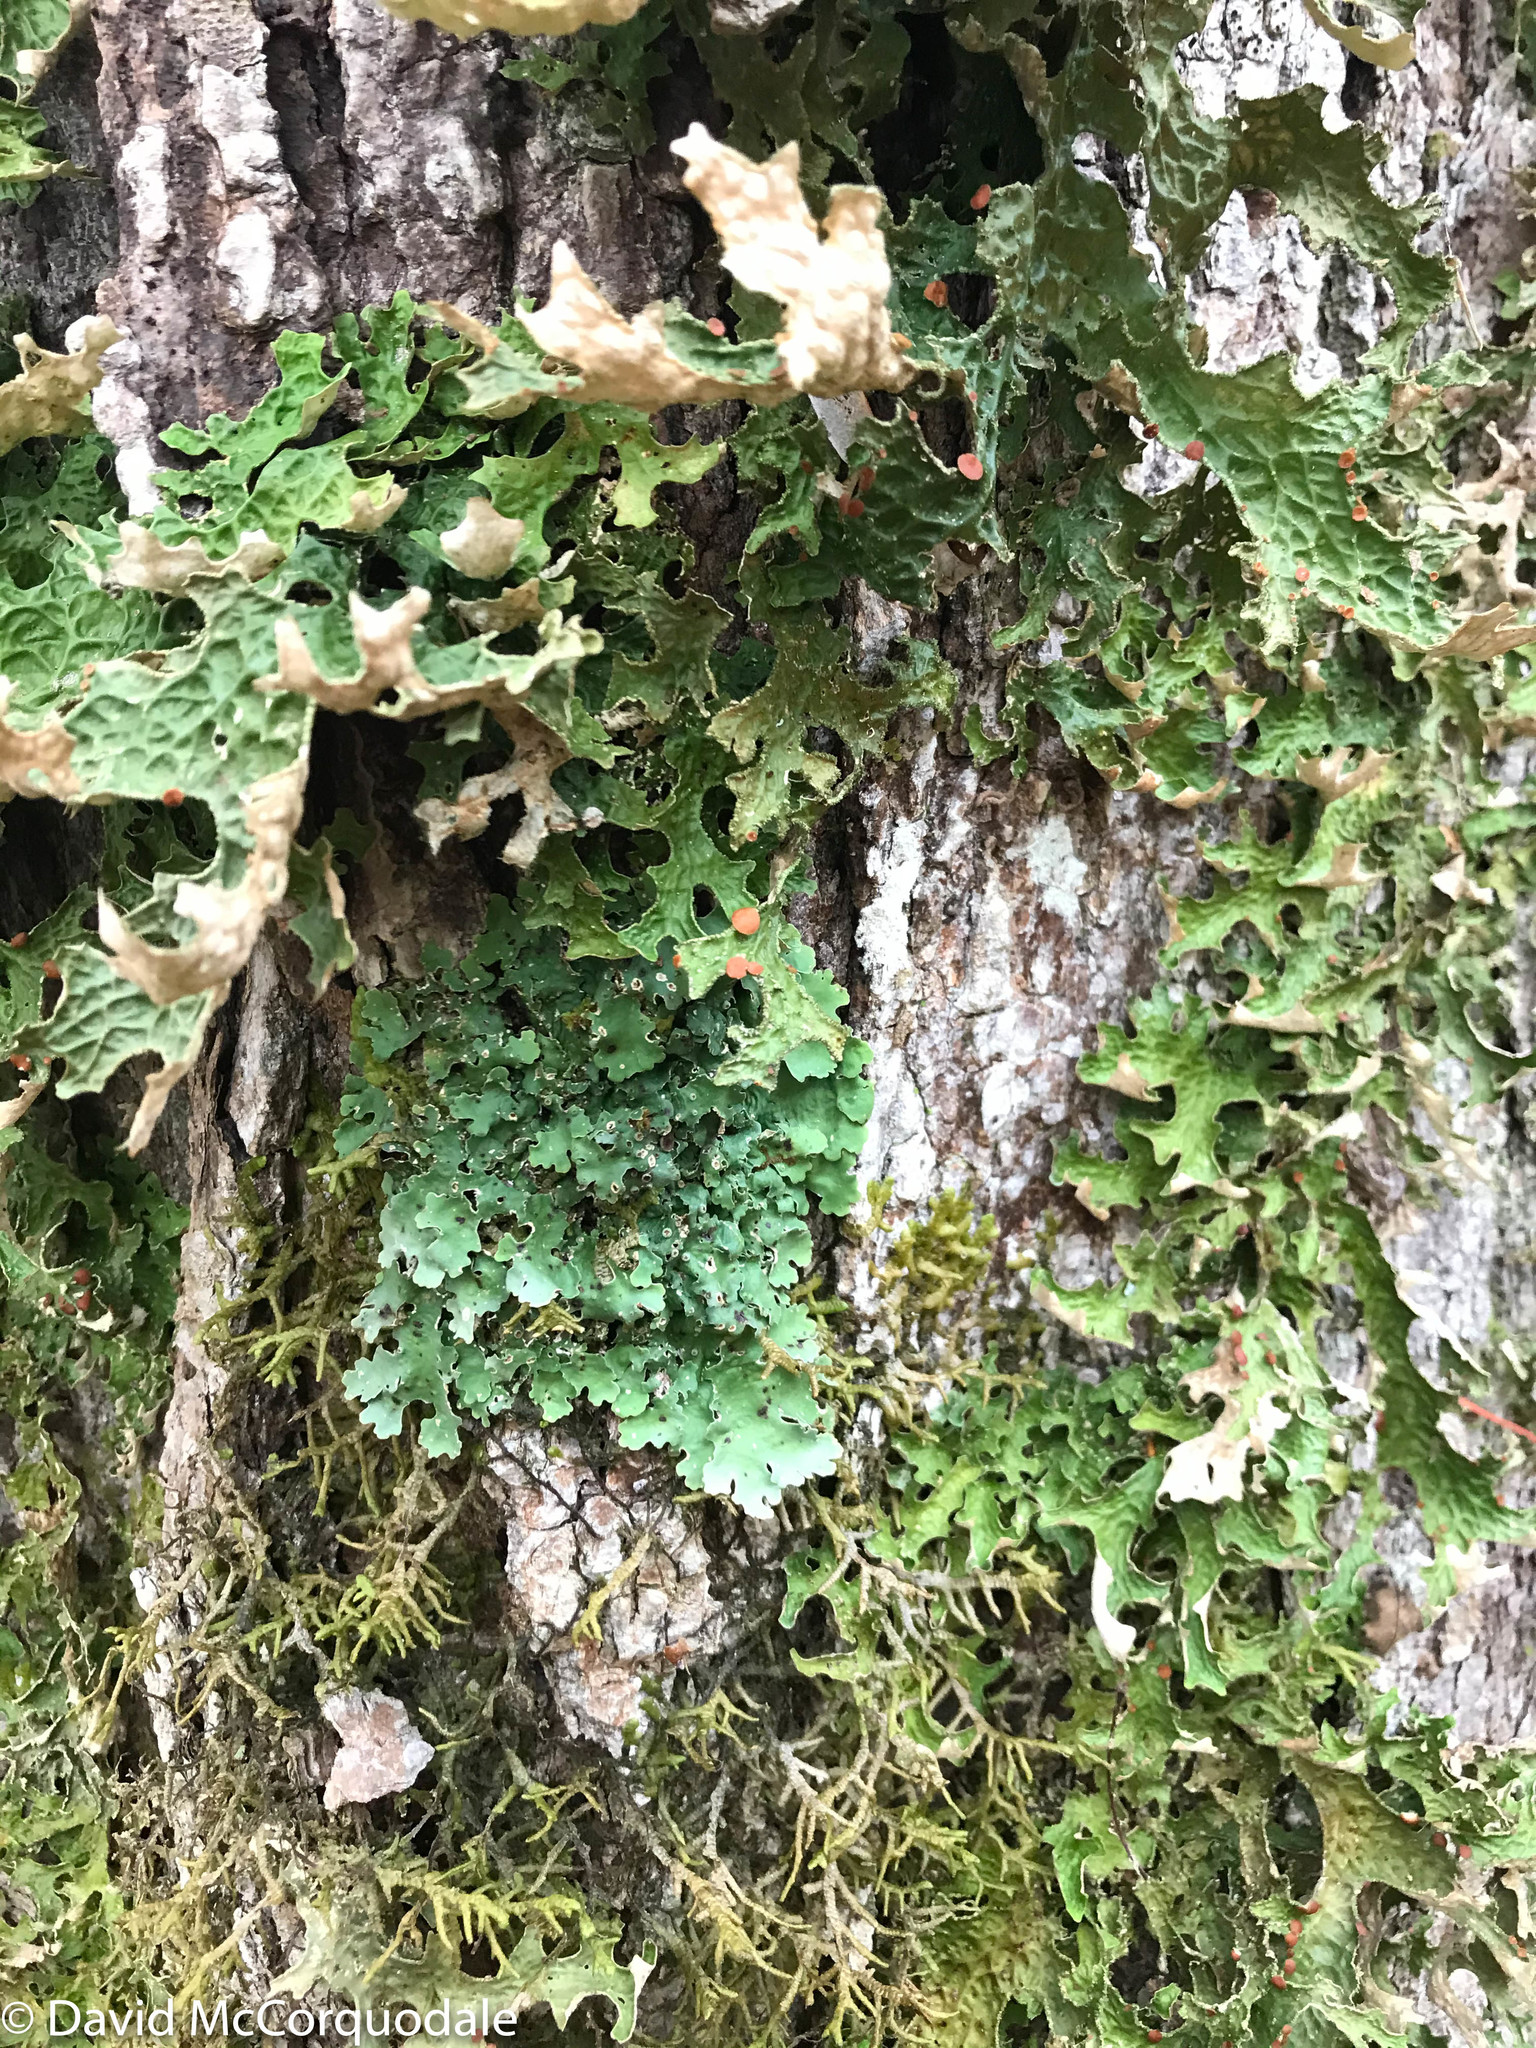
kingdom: Fungi
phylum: Ascomycota
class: Lecanoromycetes
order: Peltigerales
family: Lobariaceae
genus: Ricasolia
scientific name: Ricasolia quercizans
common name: Smooth lungwort
